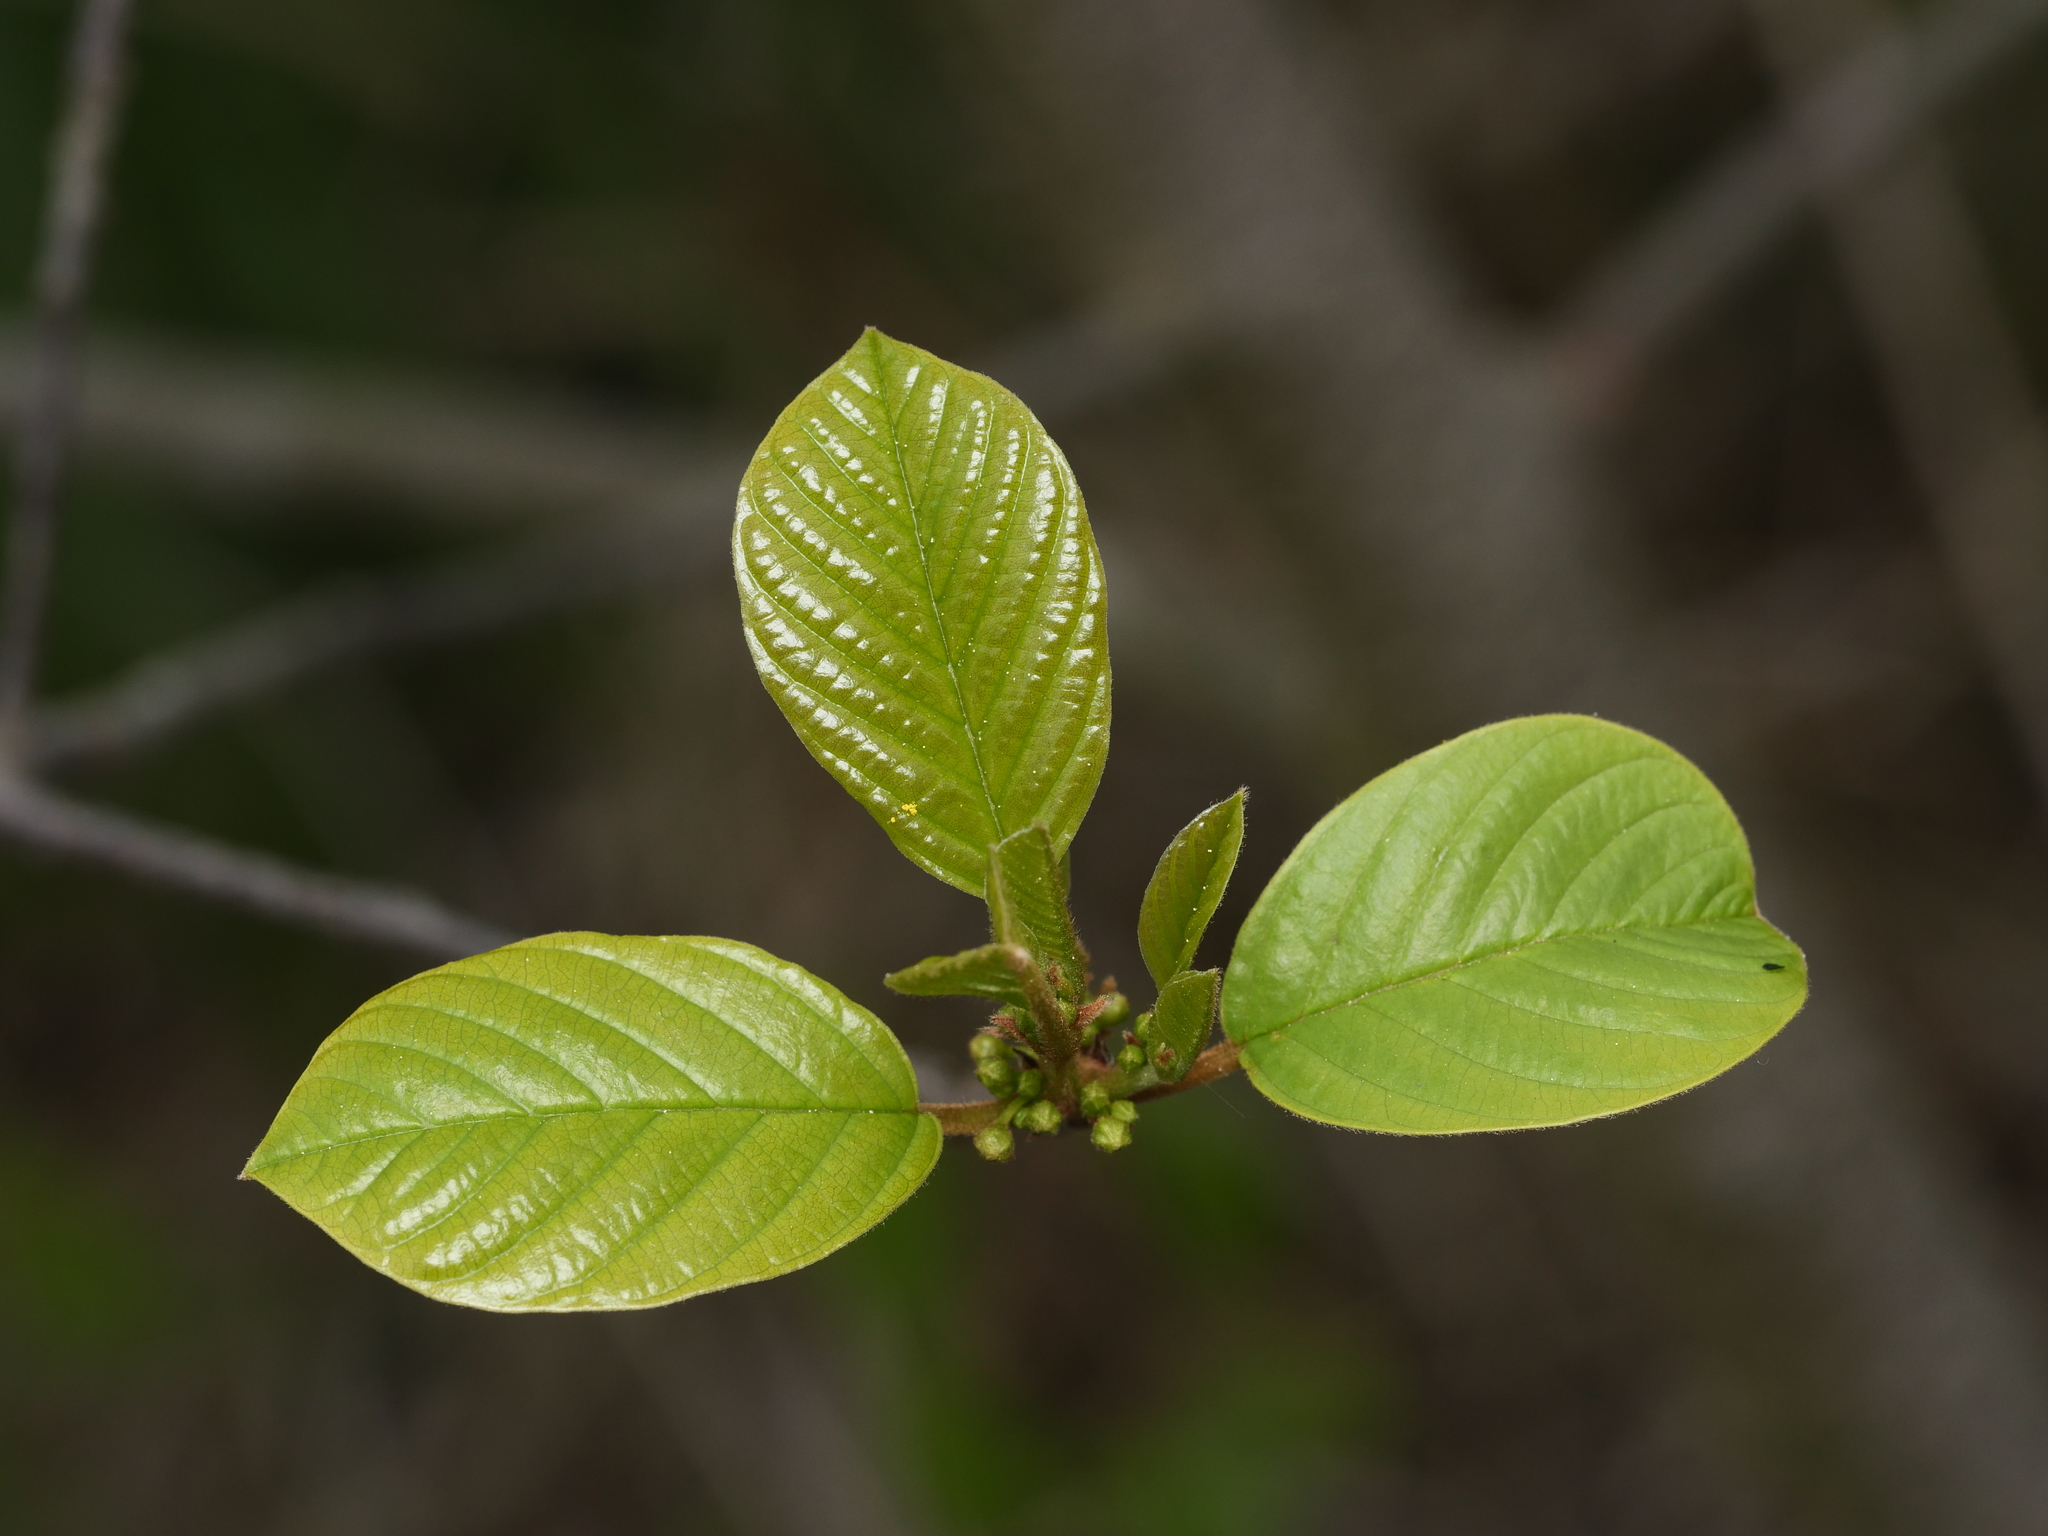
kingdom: Plantae
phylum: Tracheophyta
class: Magnoliopsida
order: Rosales
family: Rhamnaceae
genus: Frangula
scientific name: Frangula alnus
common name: Alder buckthorn
